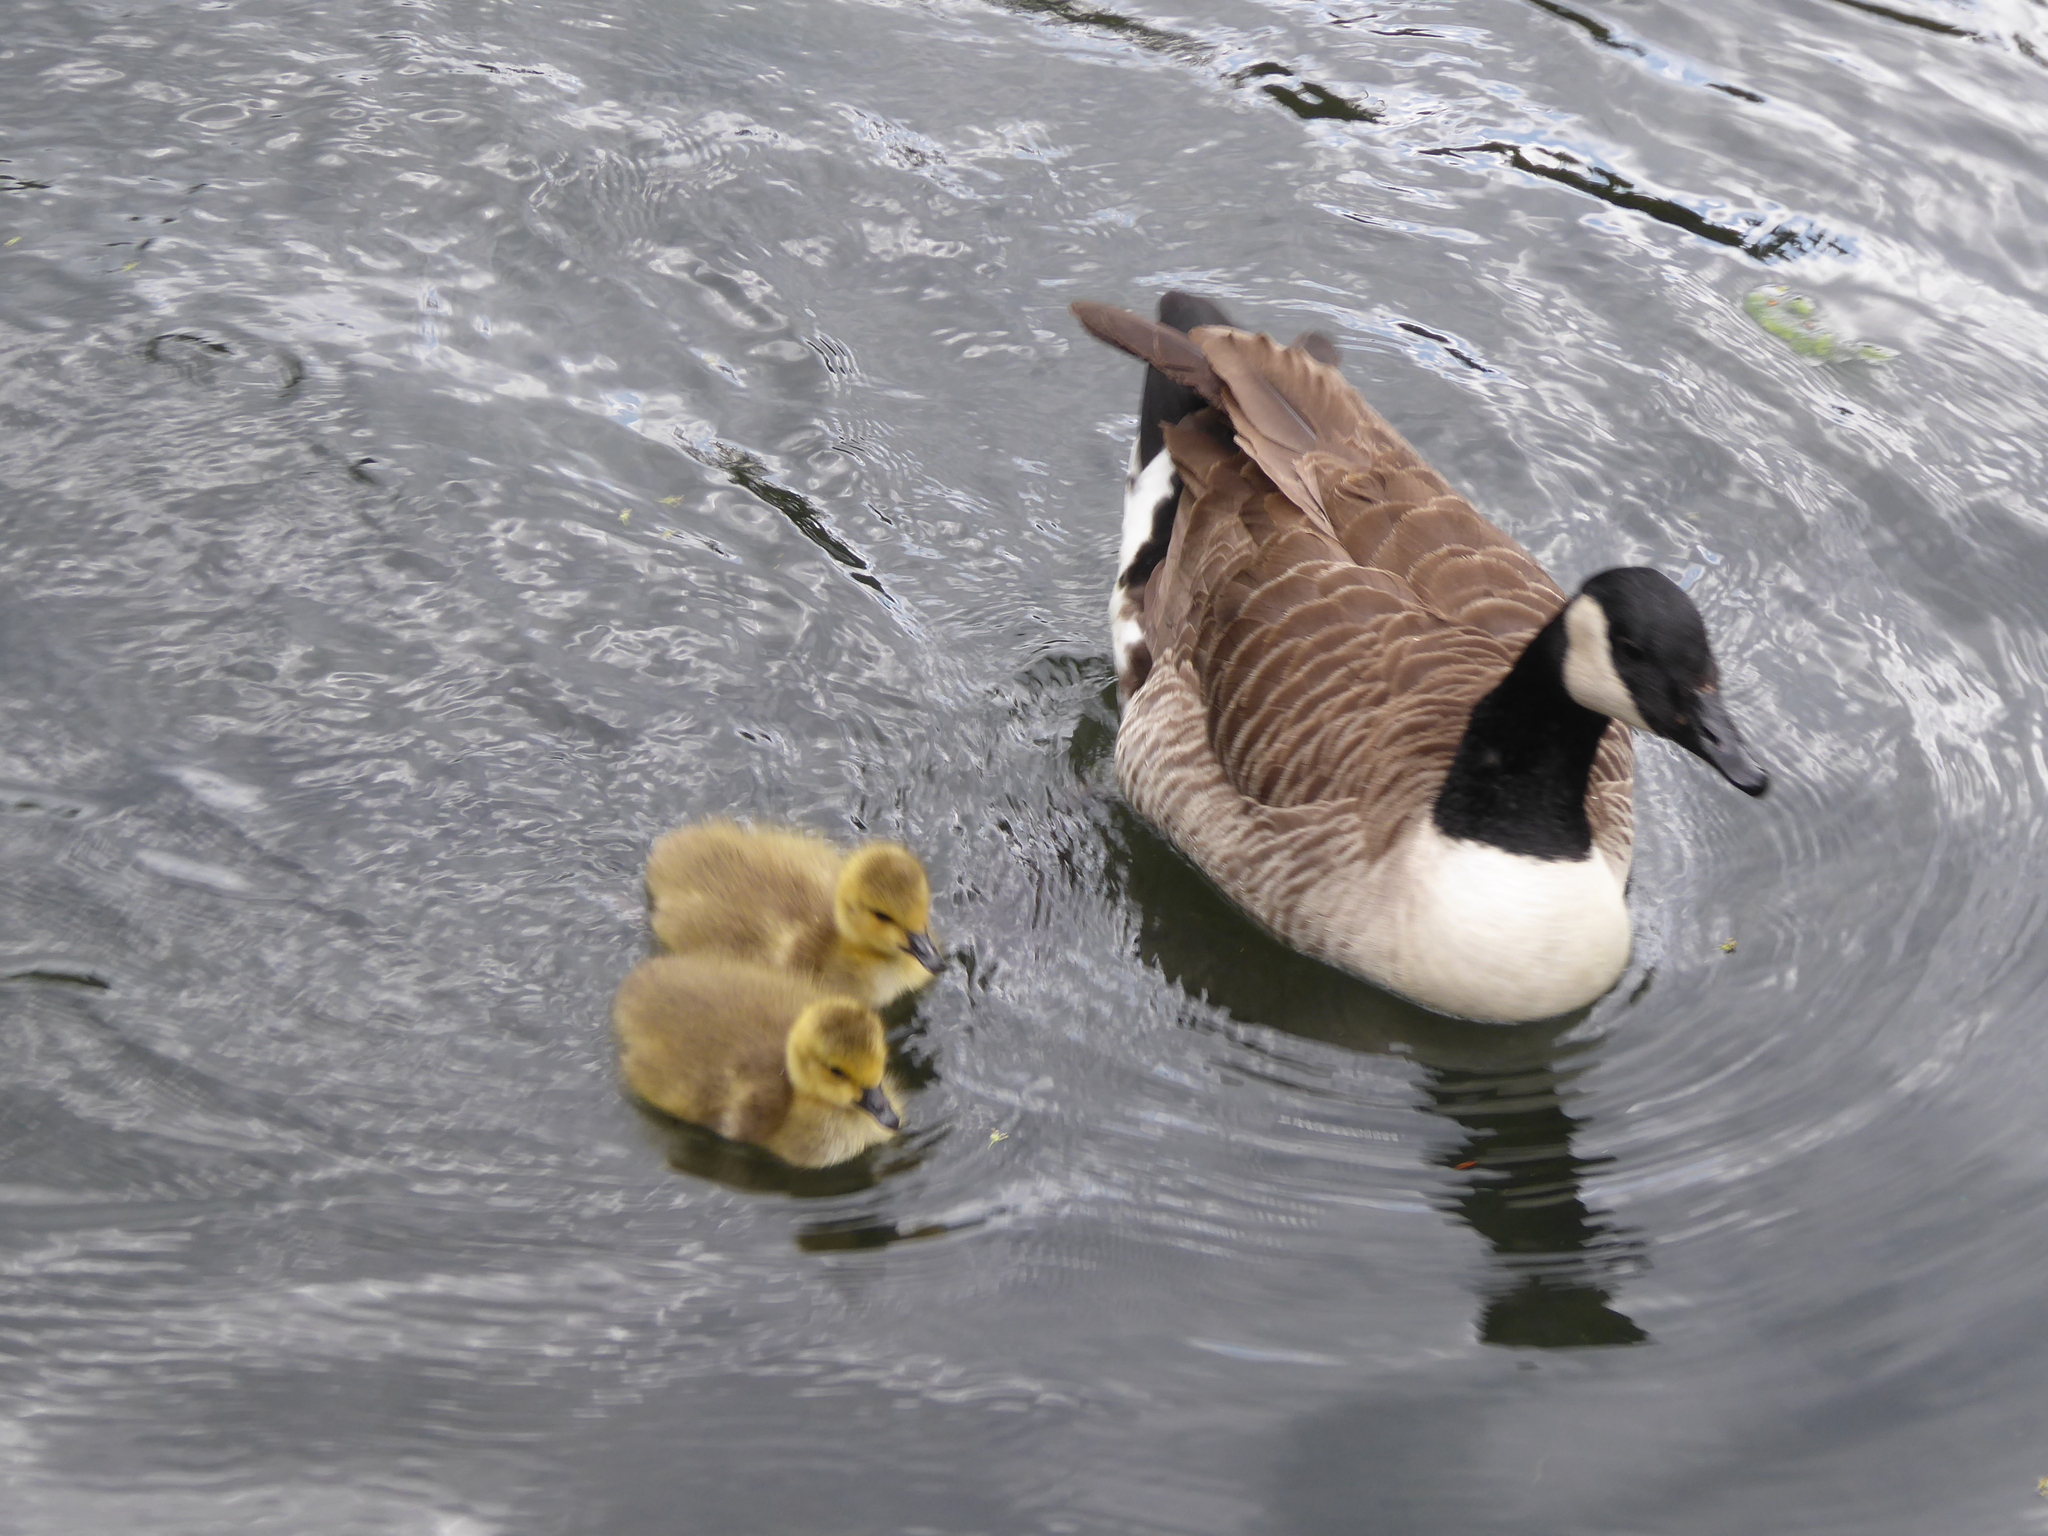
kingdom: Animalia
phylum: Chordata
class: Aves
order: Anseriformes
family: Anatidae
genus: Branta
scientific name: Branta canadensis
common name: Canada goose
